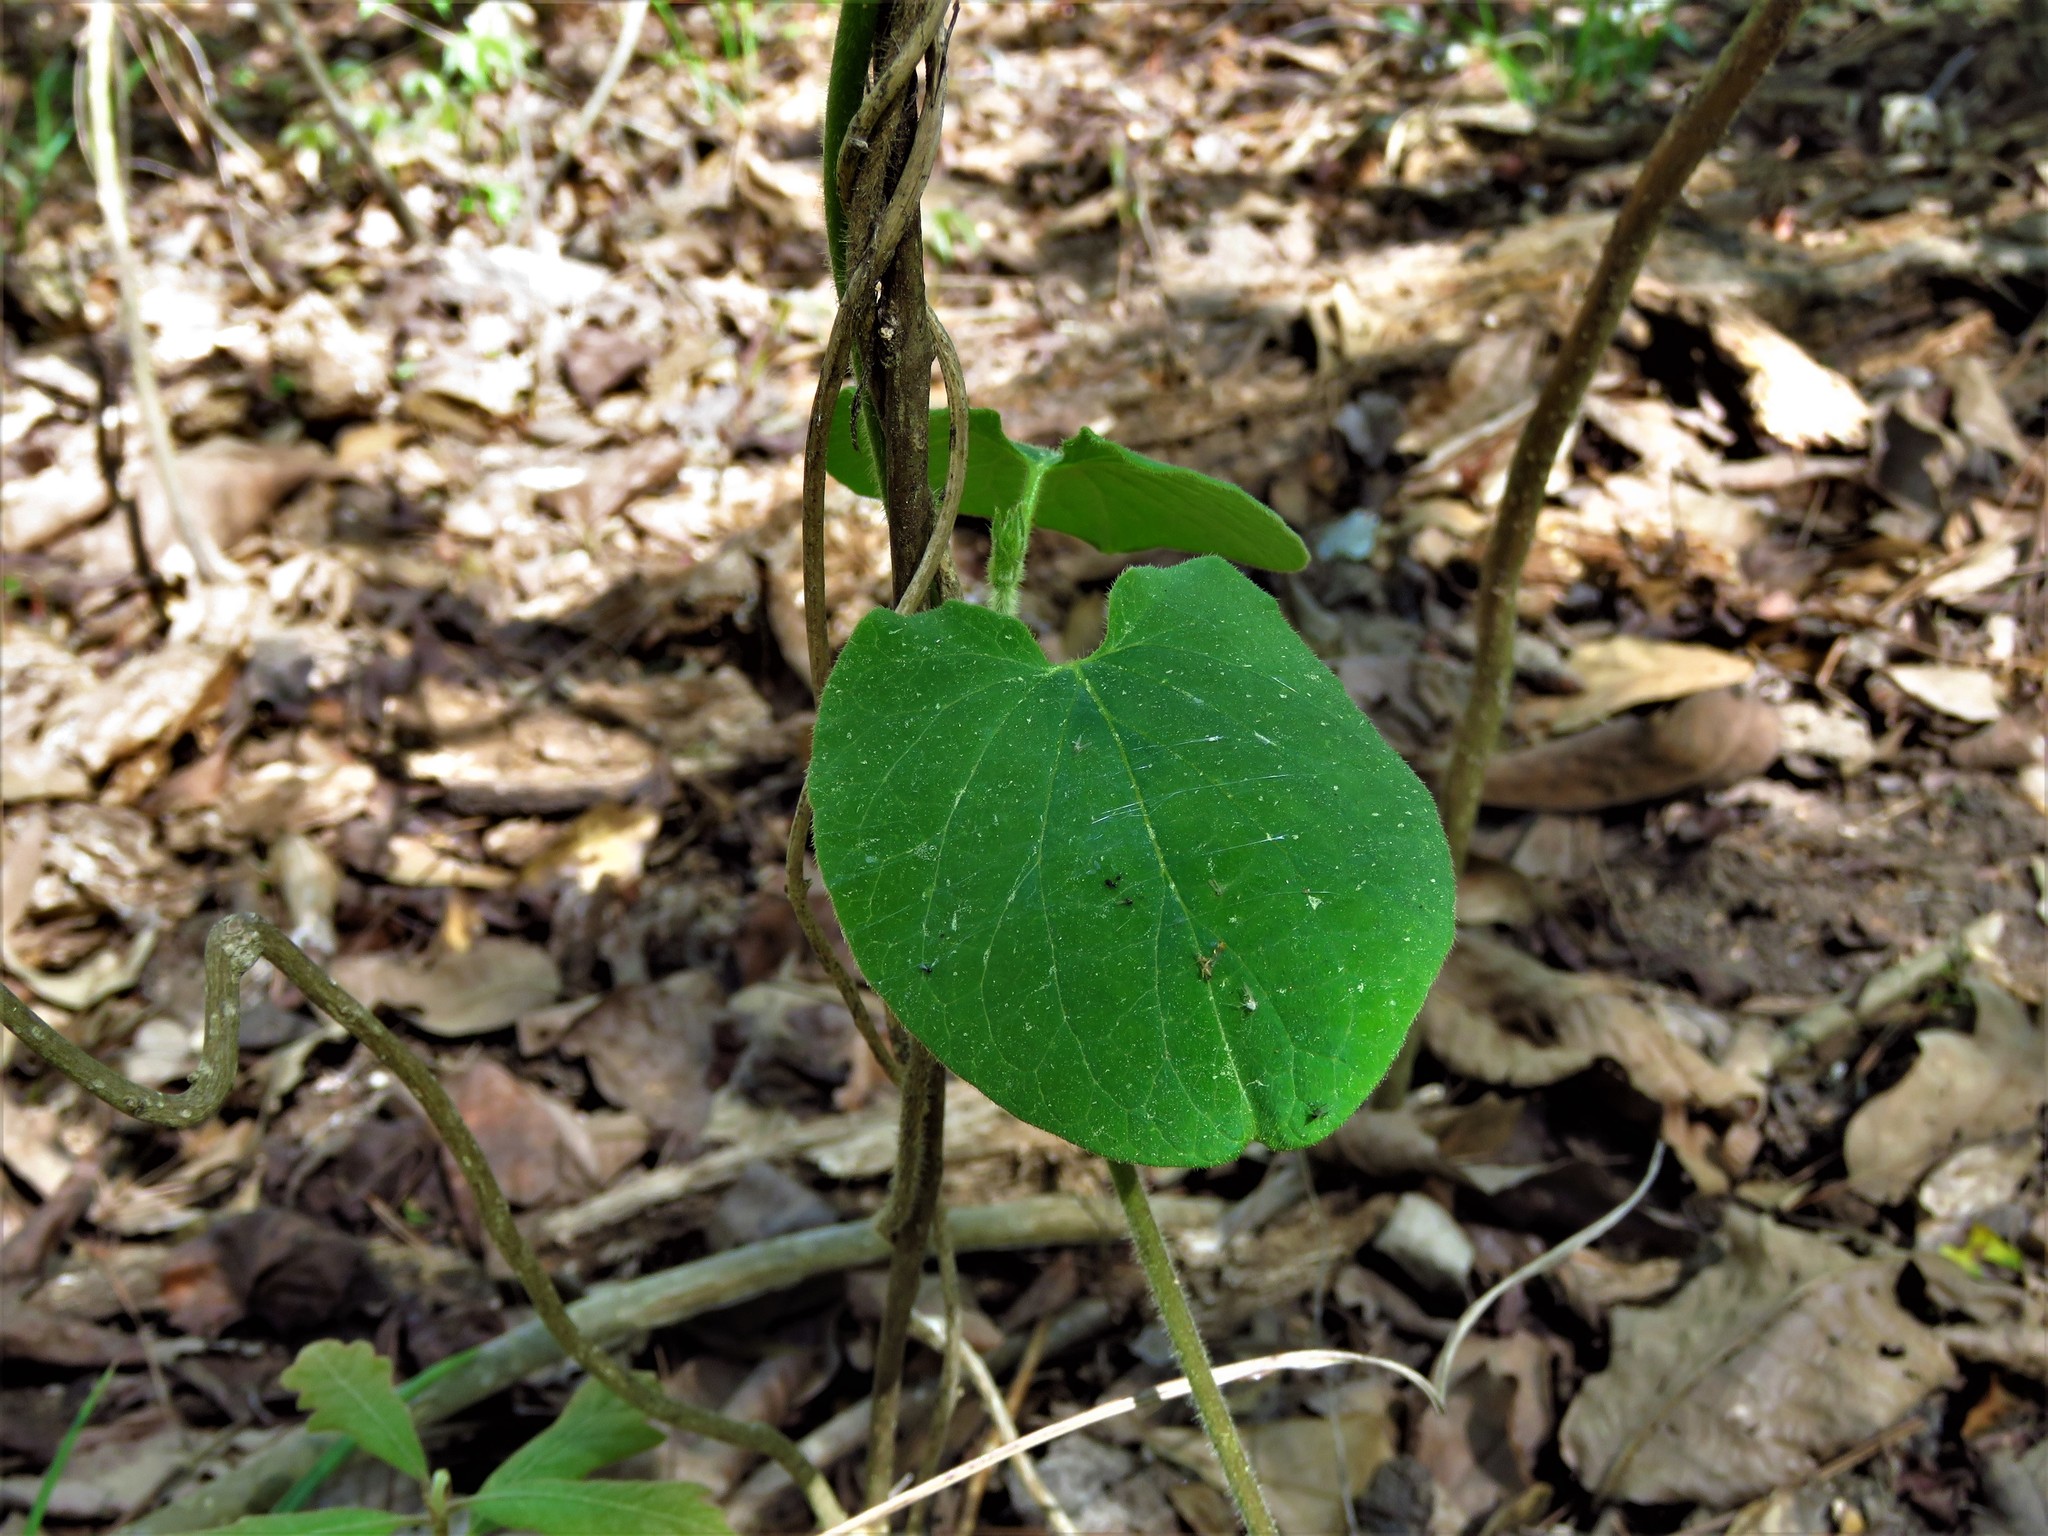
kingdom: Plantae
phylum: Tracheophyta
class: Magnoliopsida
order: Gentianales
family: Apocynaceae
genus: Matelea
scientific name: Matelea hirtelliflora
